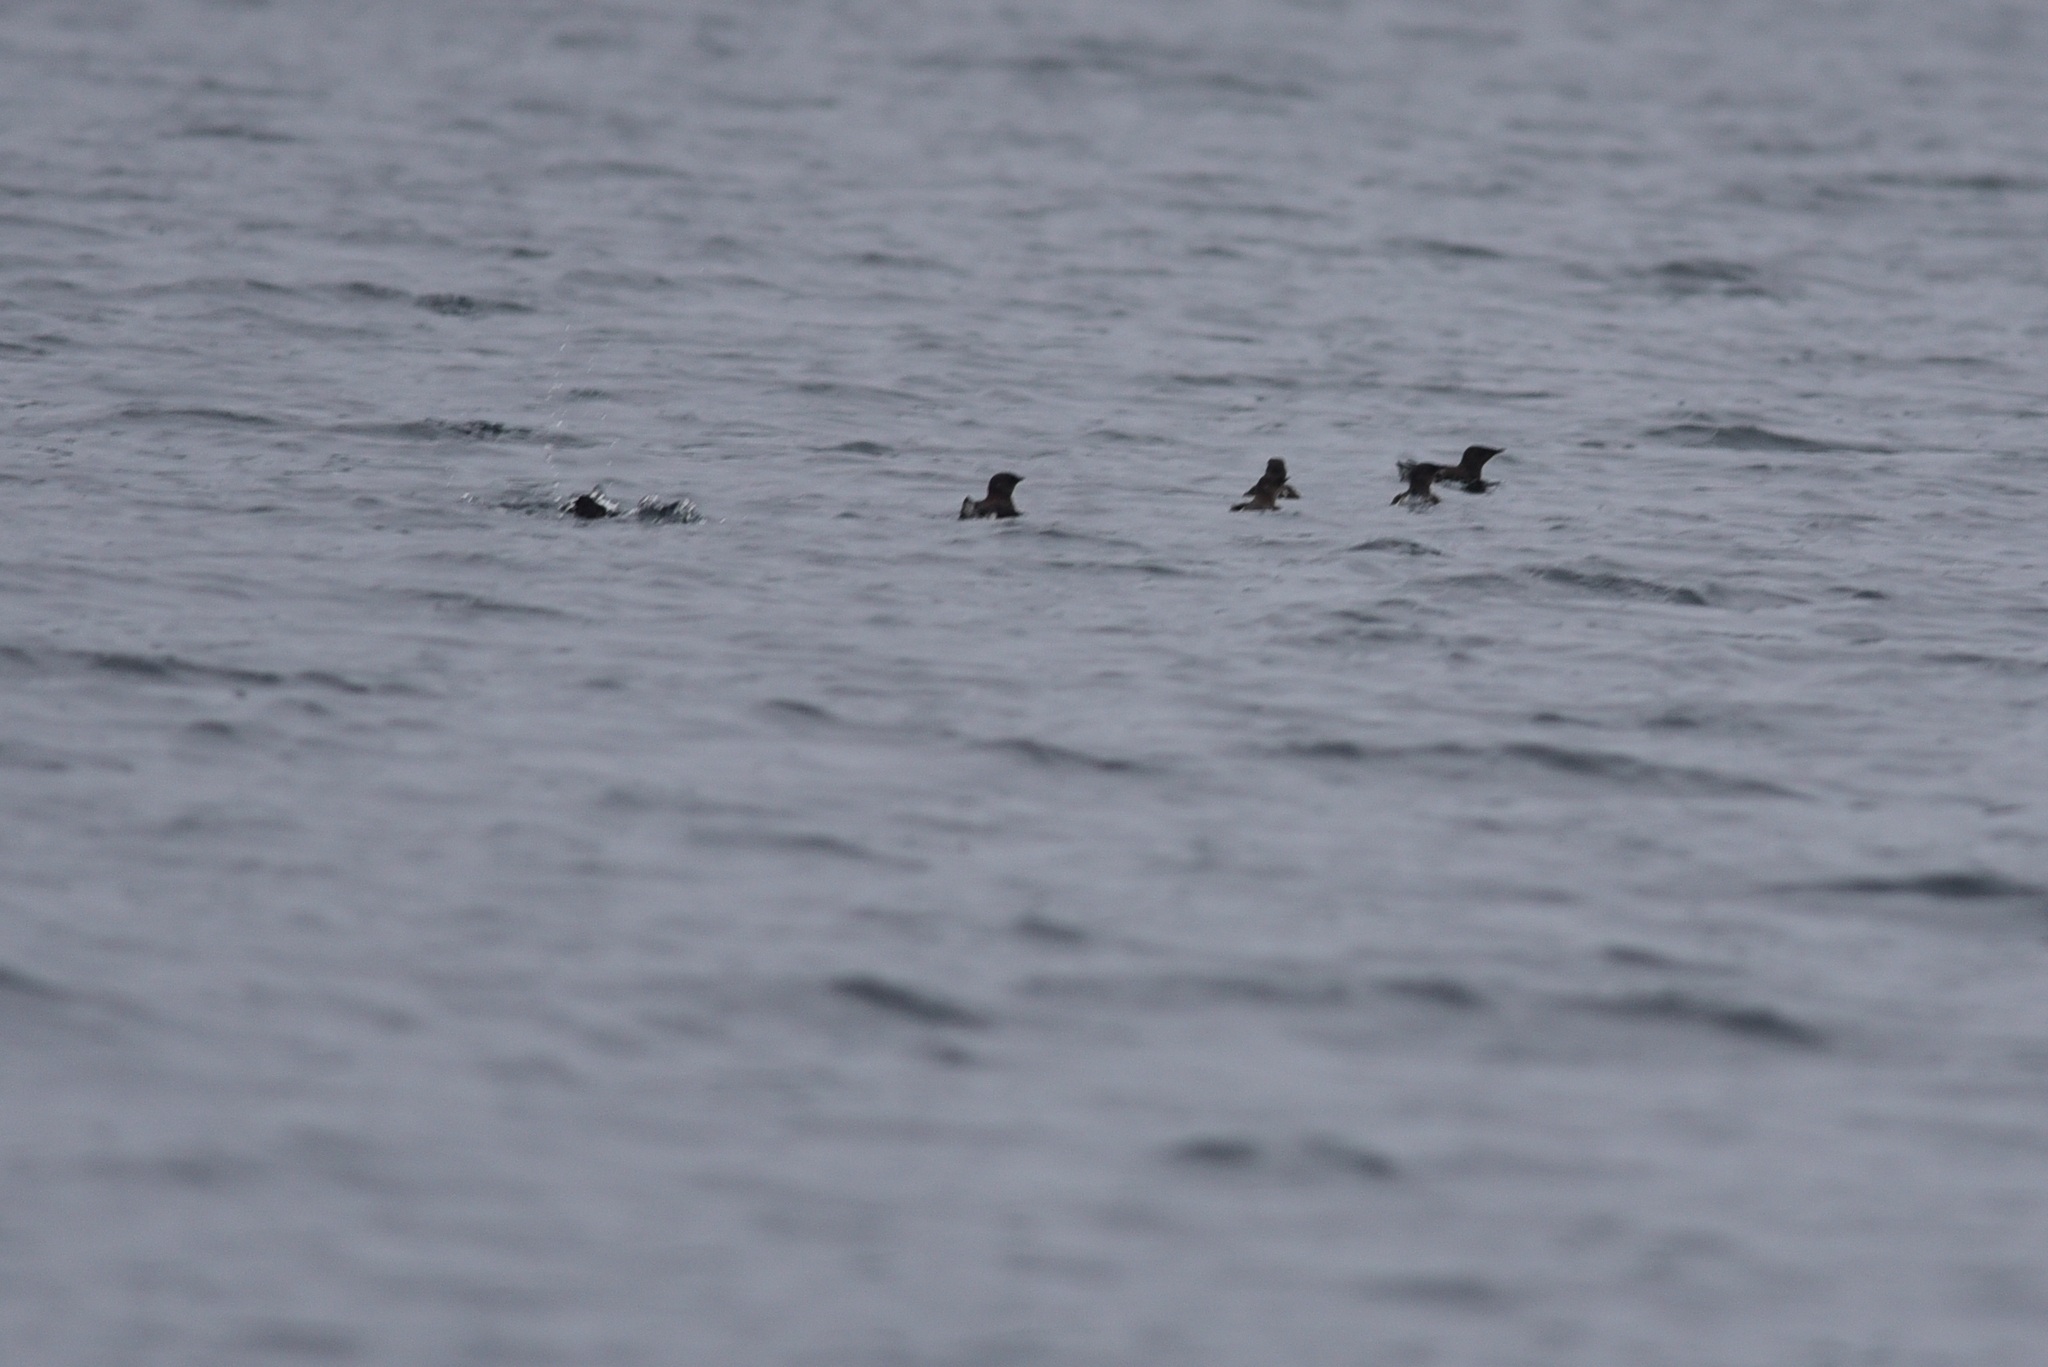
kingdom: Animalia
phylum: Chordata
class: Aves
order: Charadriiformes
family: Alcidae
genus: Brachyramphus
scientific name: Brachyramphus marmoratus
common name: Marbled murrelet
